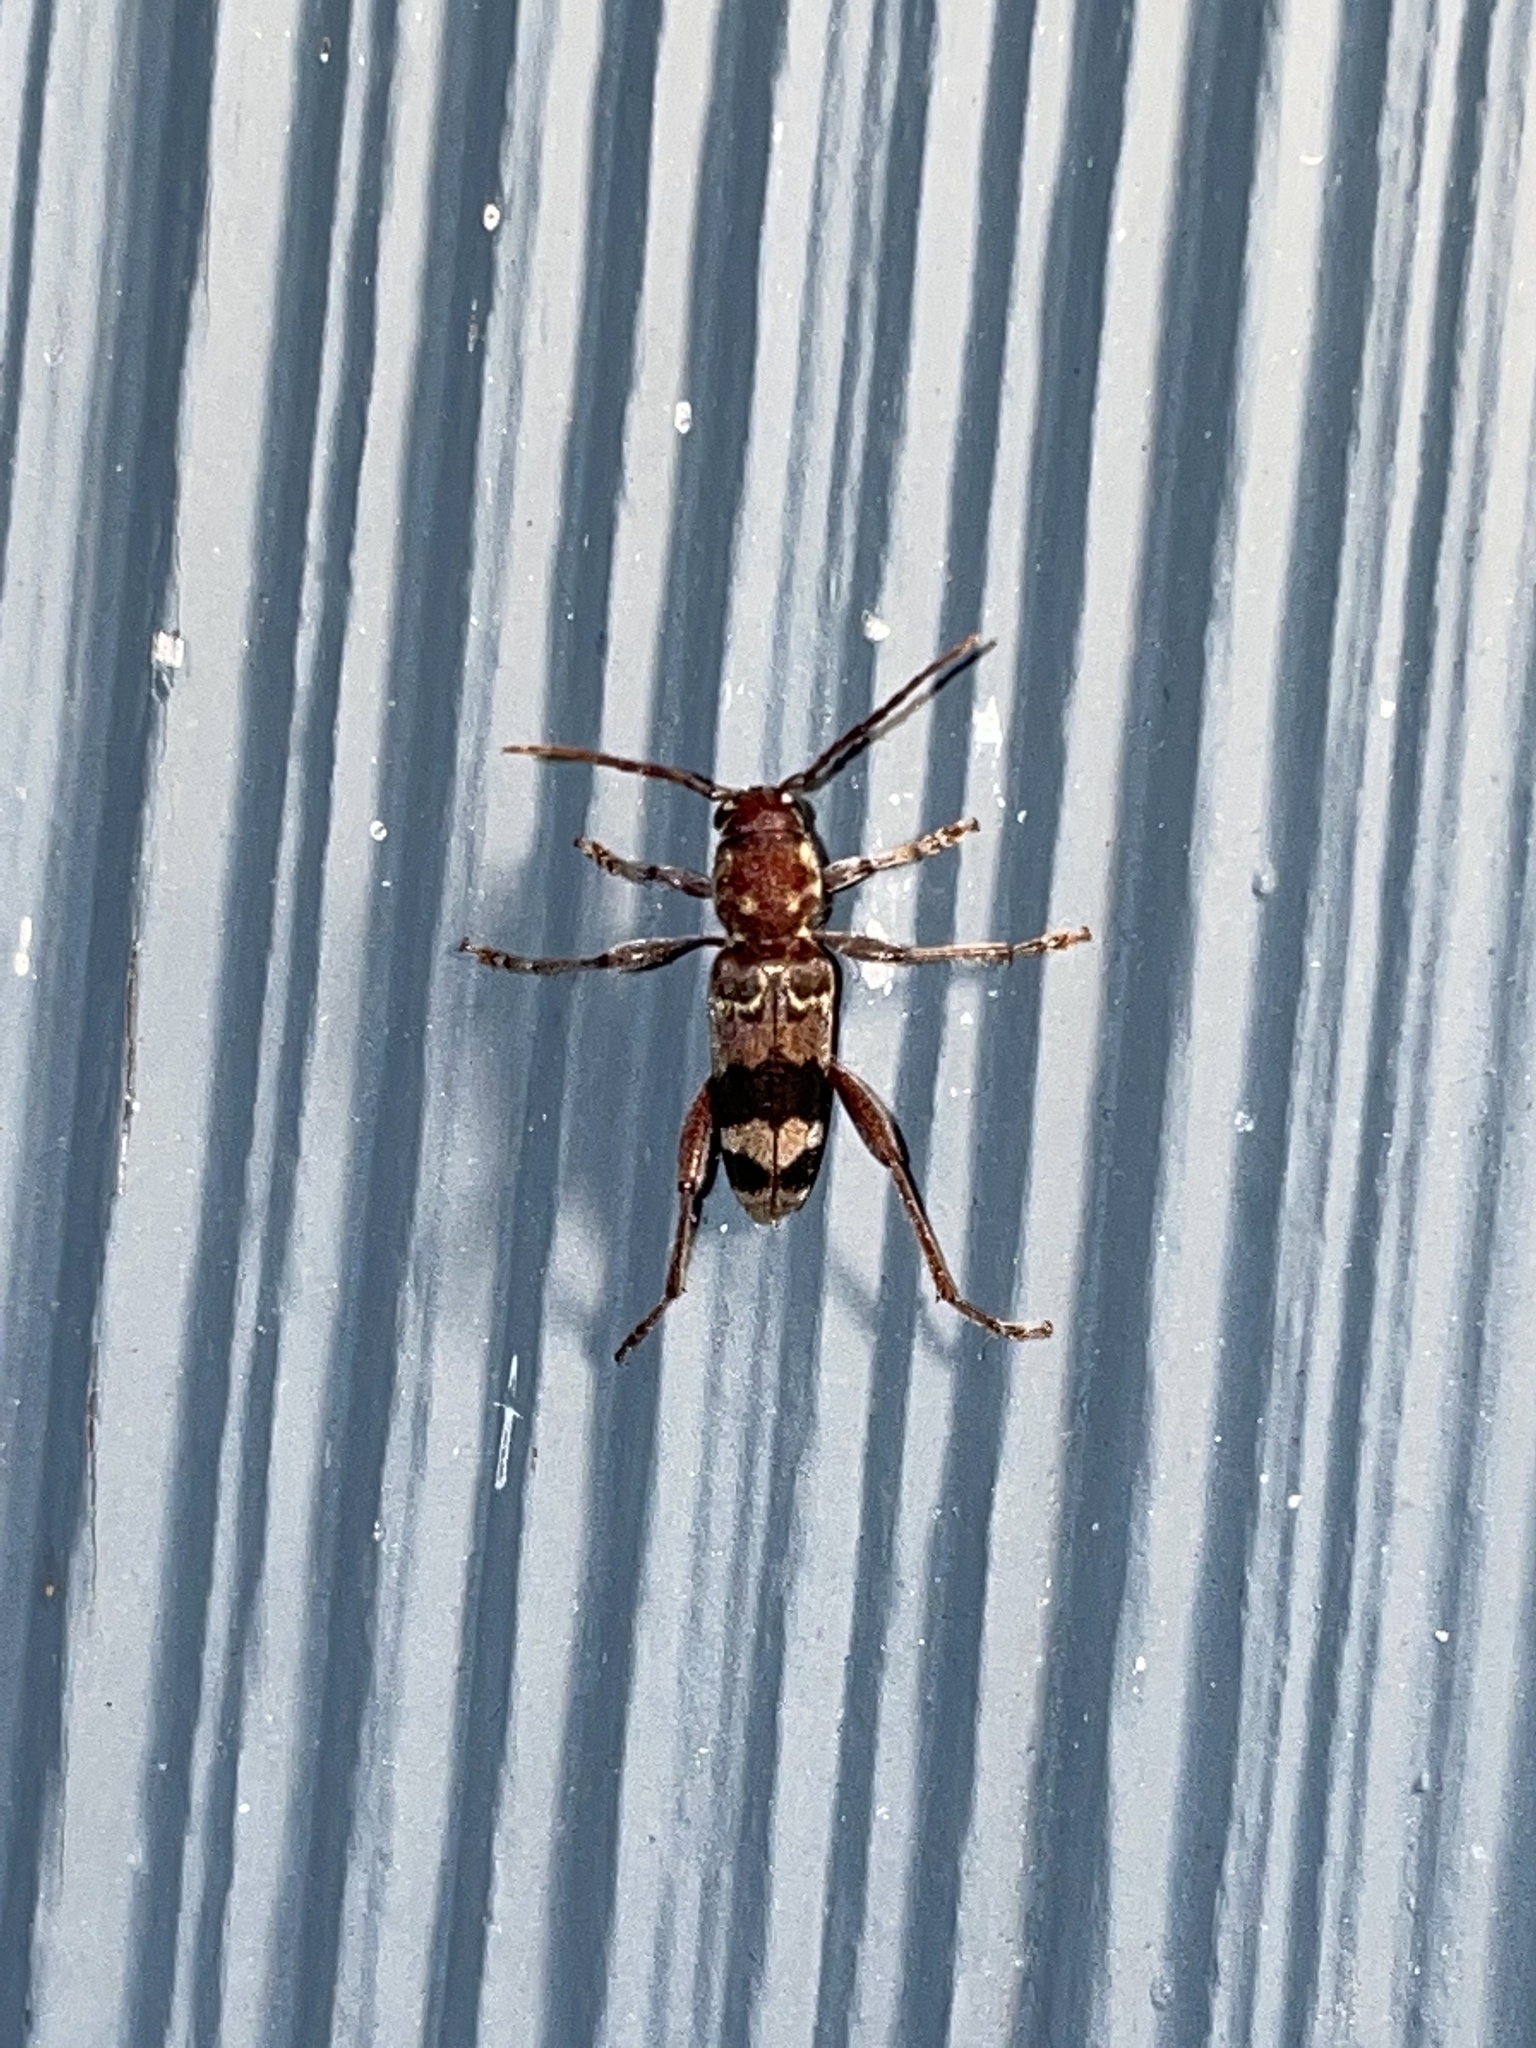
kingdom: Animalia
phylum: Arthropoda
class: Insecta
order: Coleoptera
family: Cerambycidae
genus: Xylotrechus
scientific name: Xylotrechus colonus
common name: Long-horned beetle
